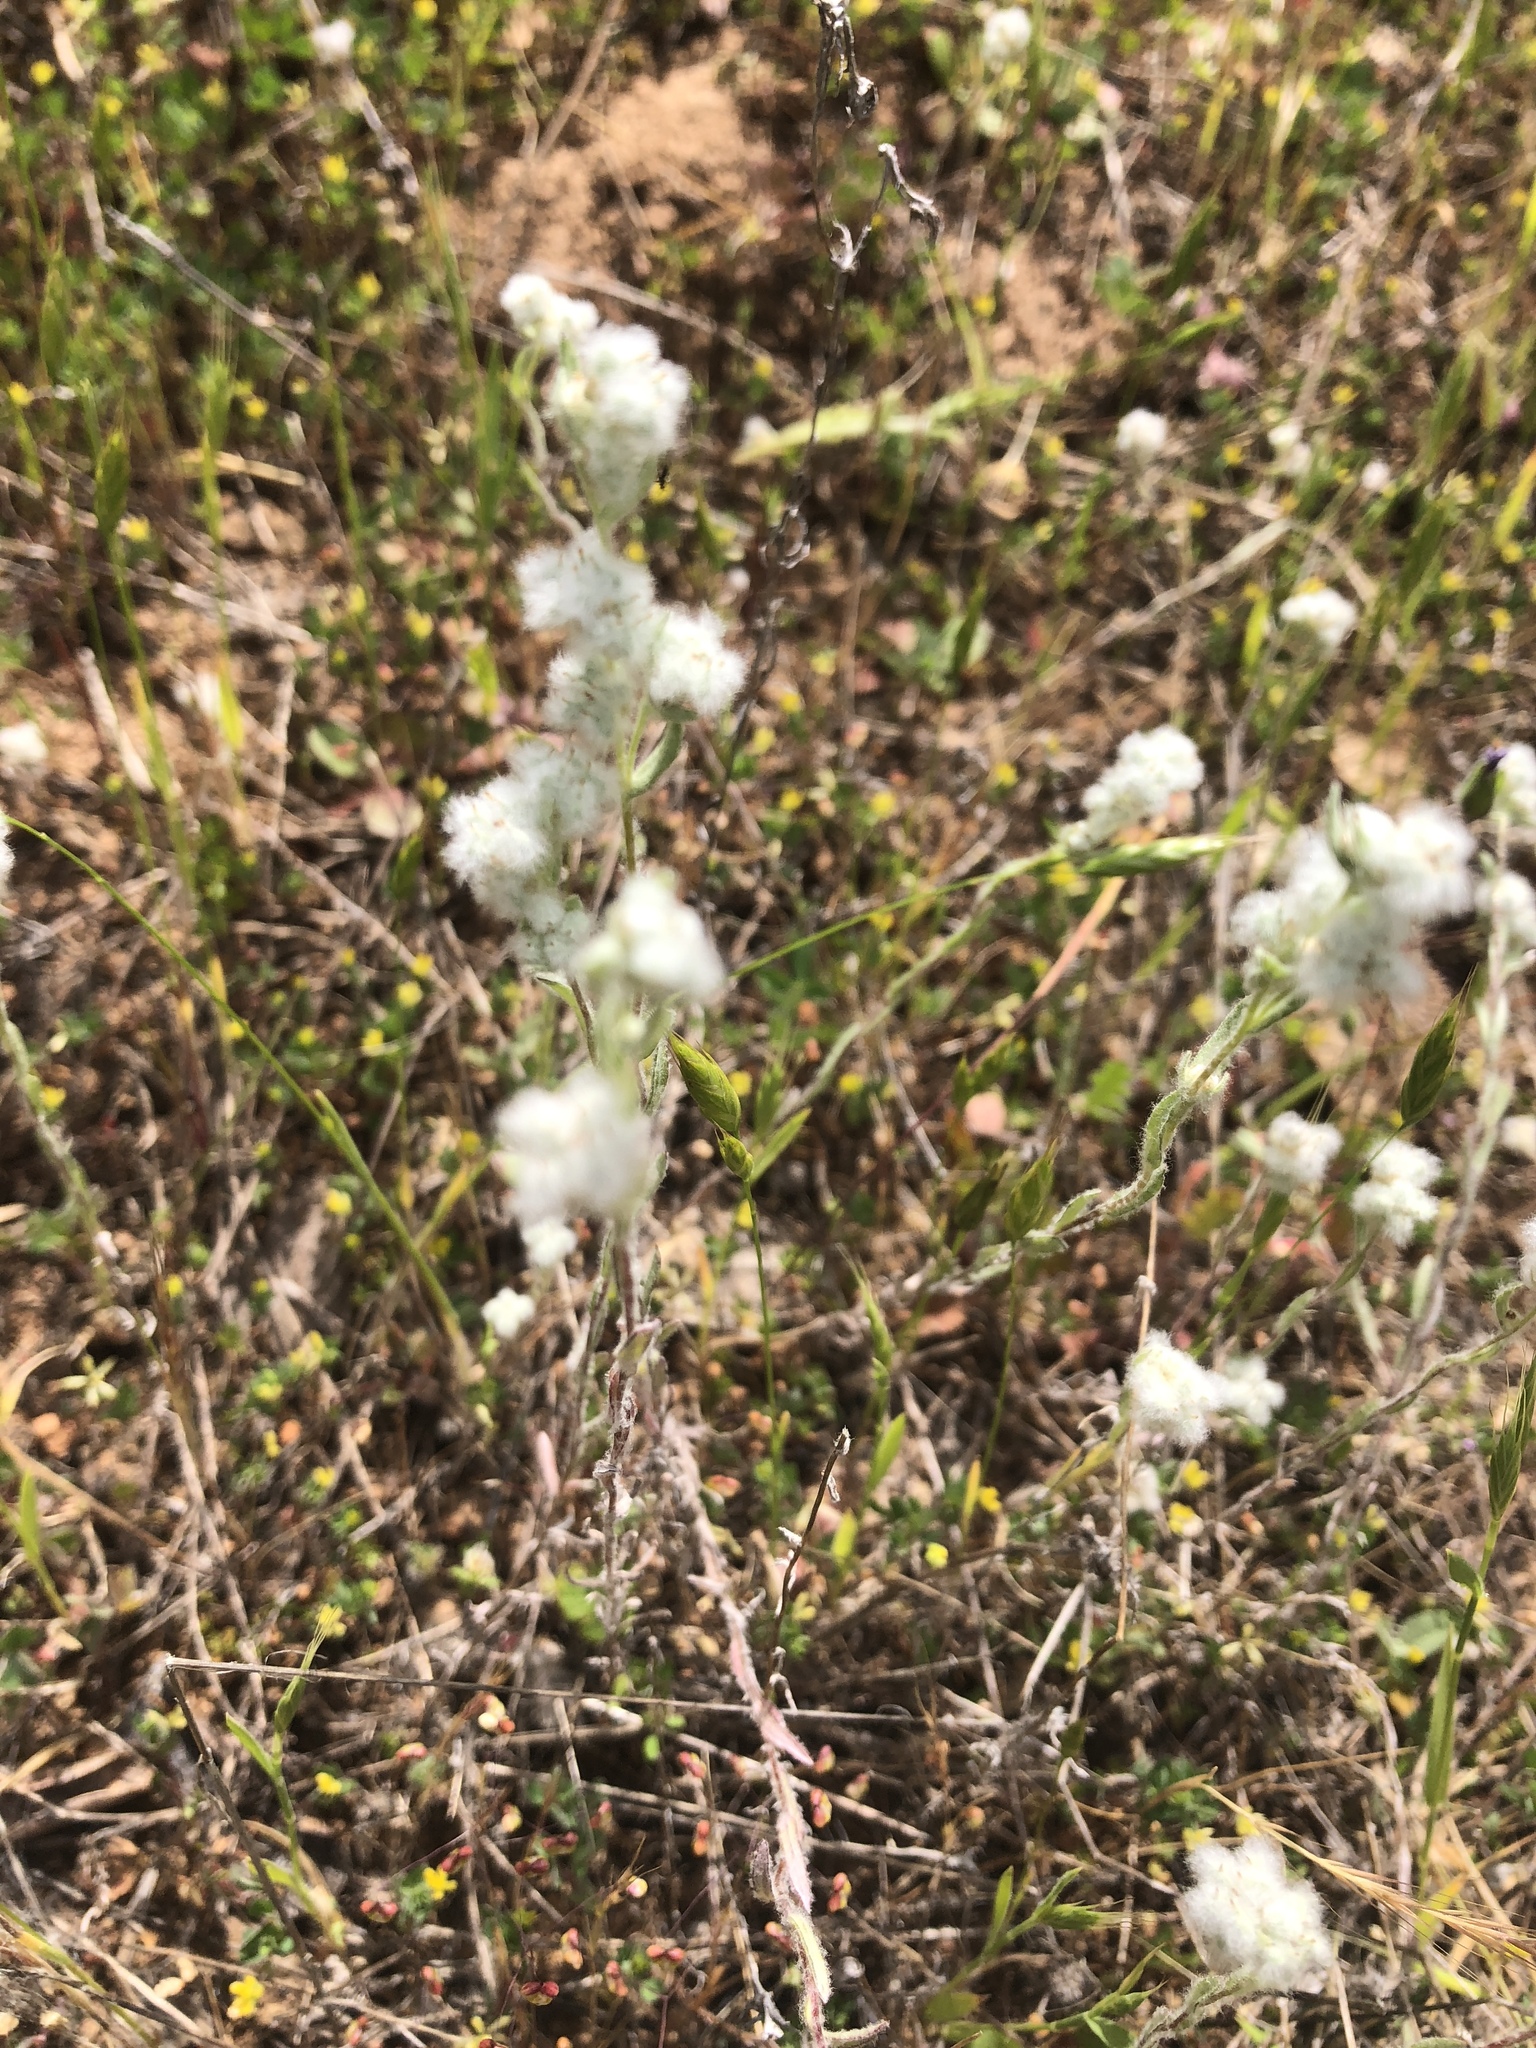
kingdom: Plantae
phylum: Tracheophyta
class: Magnoliopsida
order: Asterales
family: Asteraceae
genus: Bombycilaena
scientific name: Bombycilaena californica
